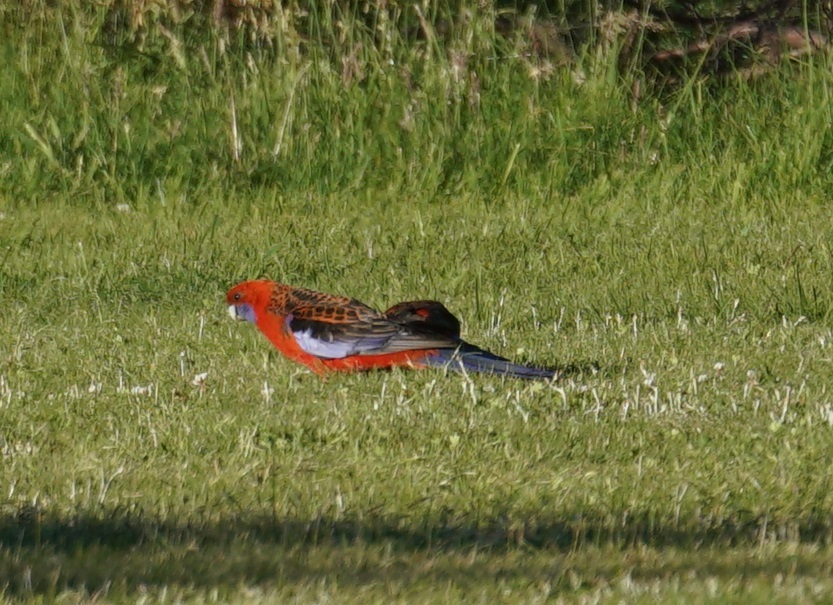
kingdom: Animalia
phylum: Chordata
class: Aves
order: Psittaciformes
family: Psittacidae
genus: Platycercus
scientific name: Platycercus elegans
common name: Crimson rosella
